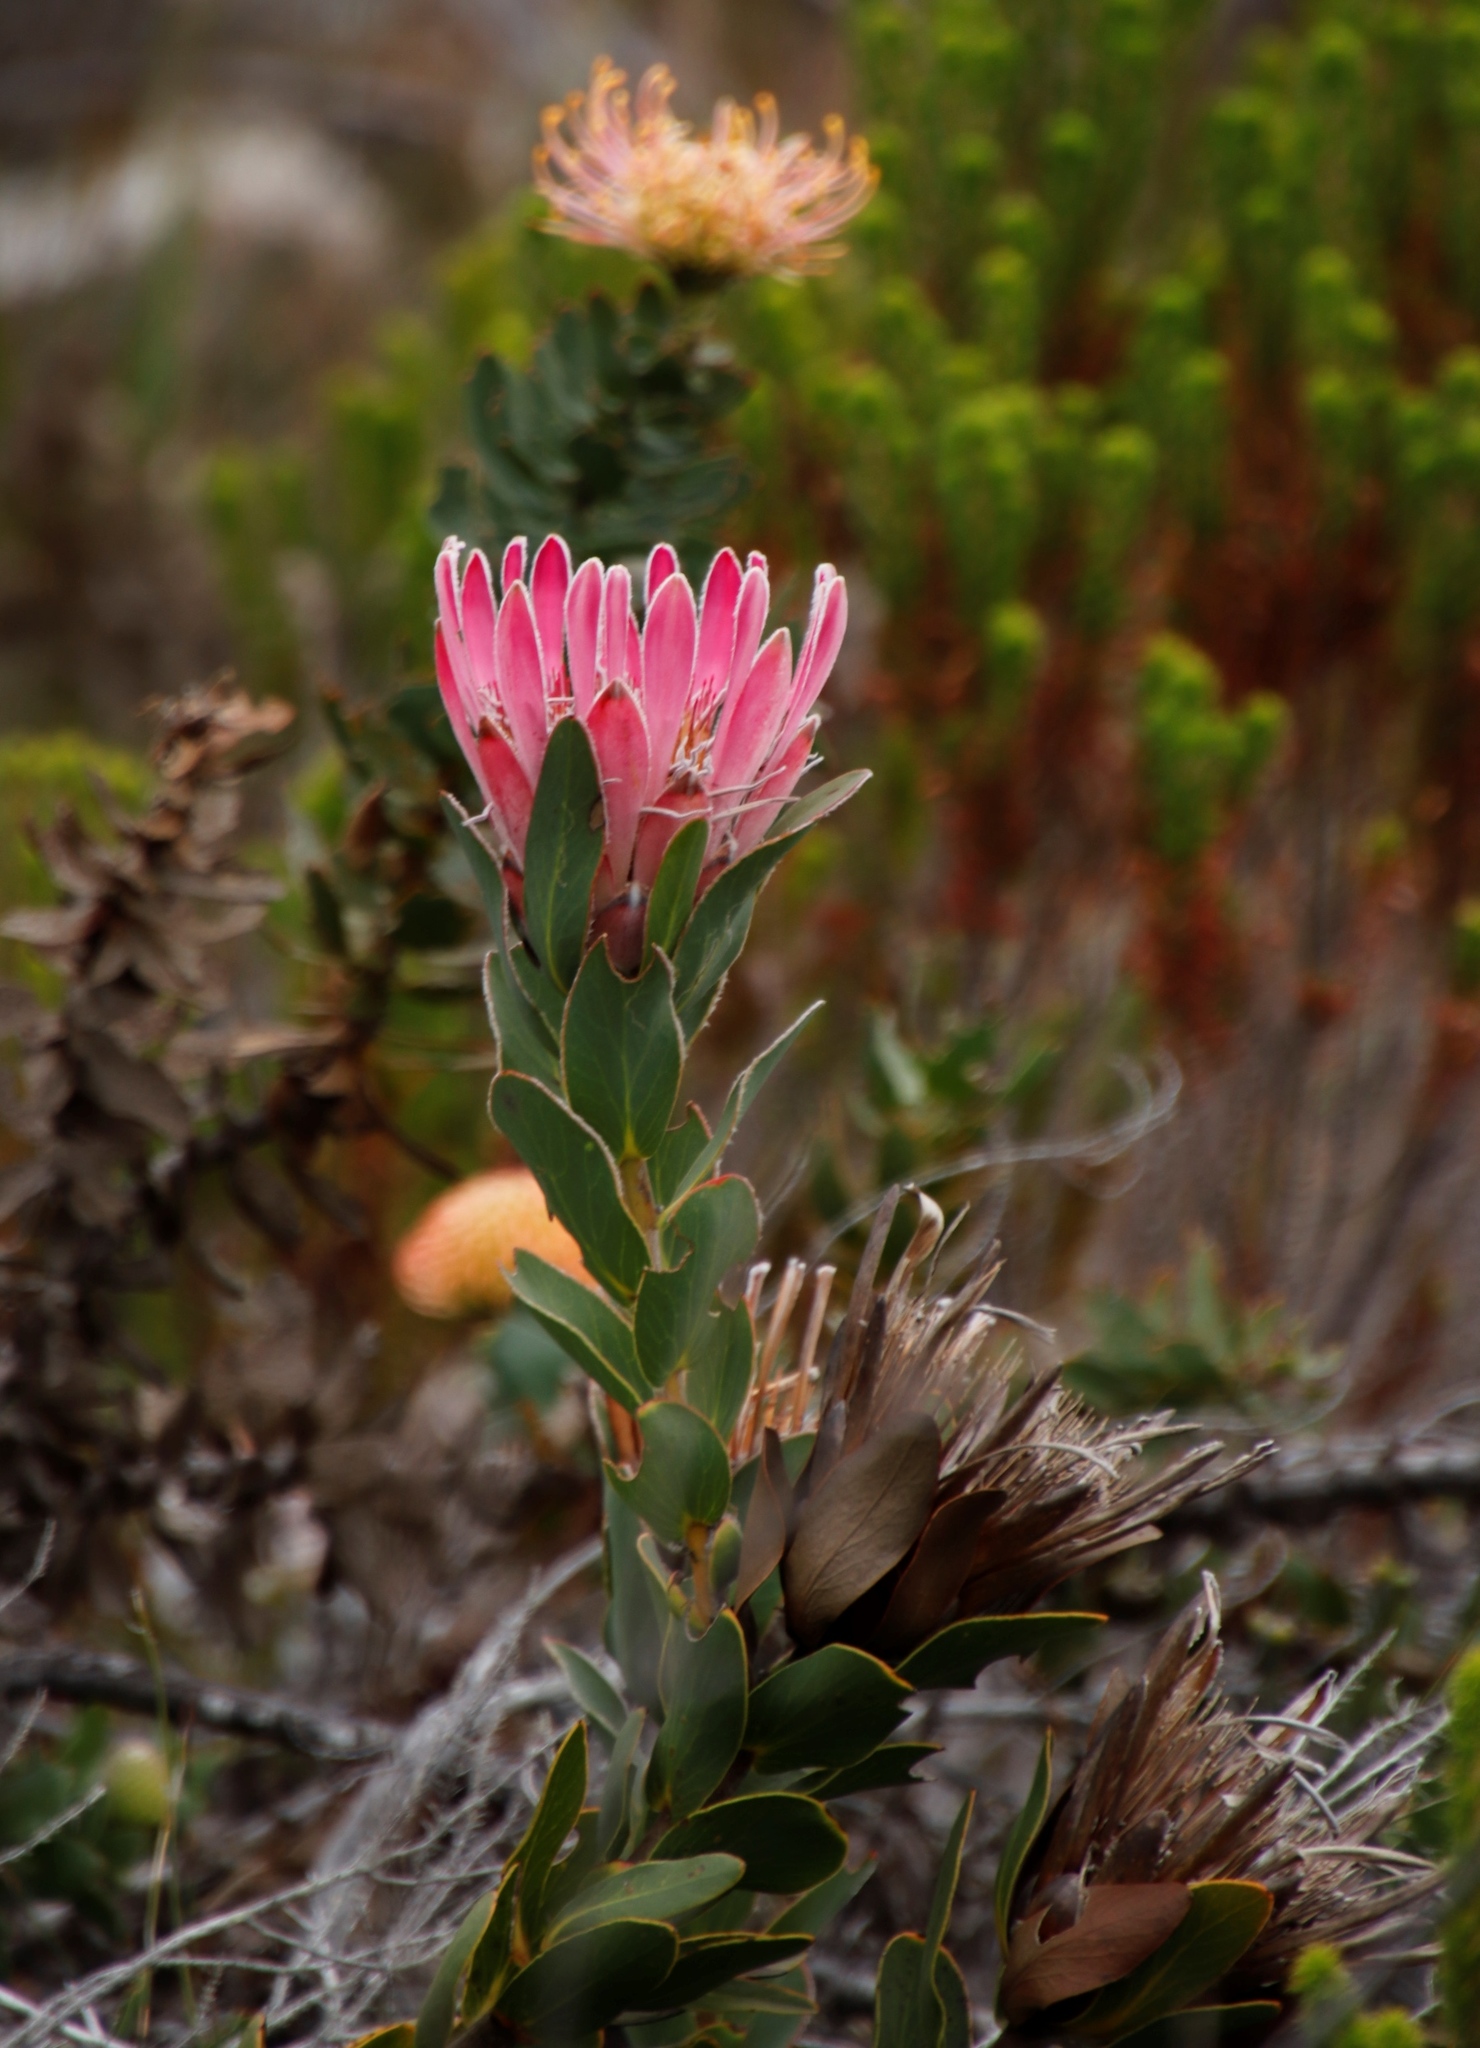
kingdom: Plantae
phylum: Tracheophyta
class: Magnoliopsida
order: Proteales
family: Proteaceae
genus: Protea
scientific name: Protea compacta
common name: Bot river protea
